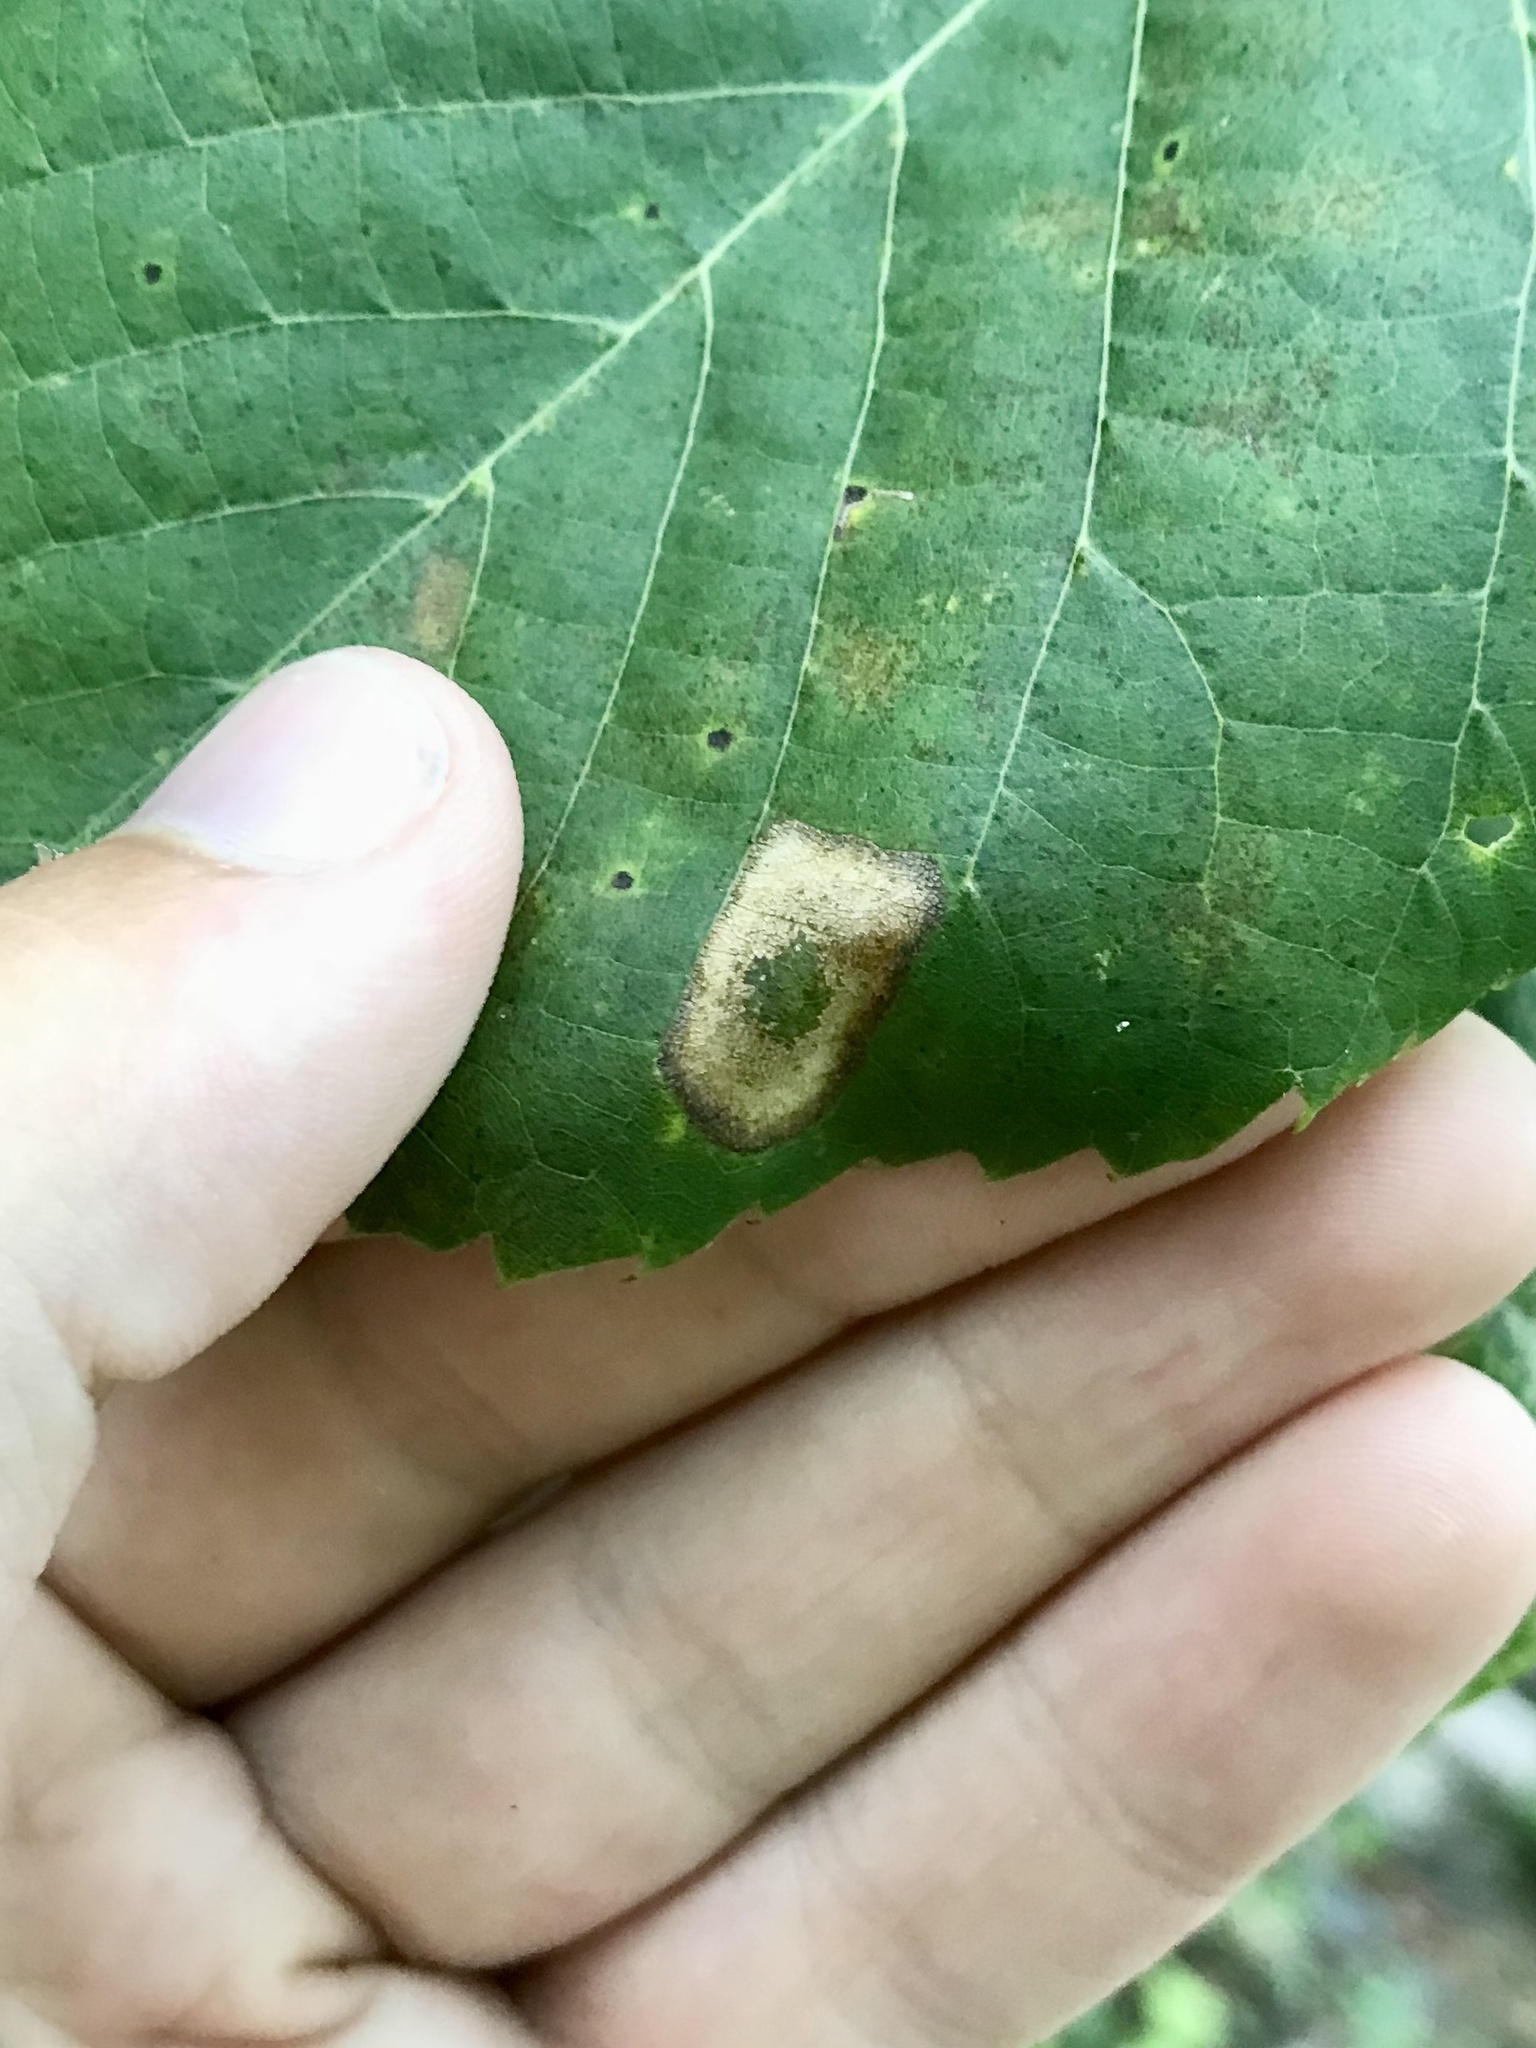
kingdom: Animalia
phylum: Arthropoda
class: Insecta
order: Lepidoptera
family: Gracillariidae
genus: Phyllonorycter
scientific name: Phyllonorycter lucetiella
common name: Basswood miner moth
